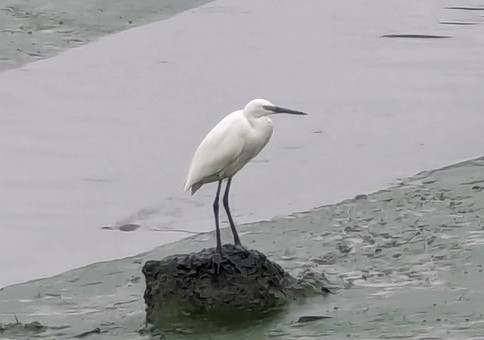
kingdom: Animalia
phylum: Chordata
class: Aves
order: Pelecaniformes
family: Ardeidae
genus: Egretta
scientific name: Egretta garzetta
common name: Little egret
